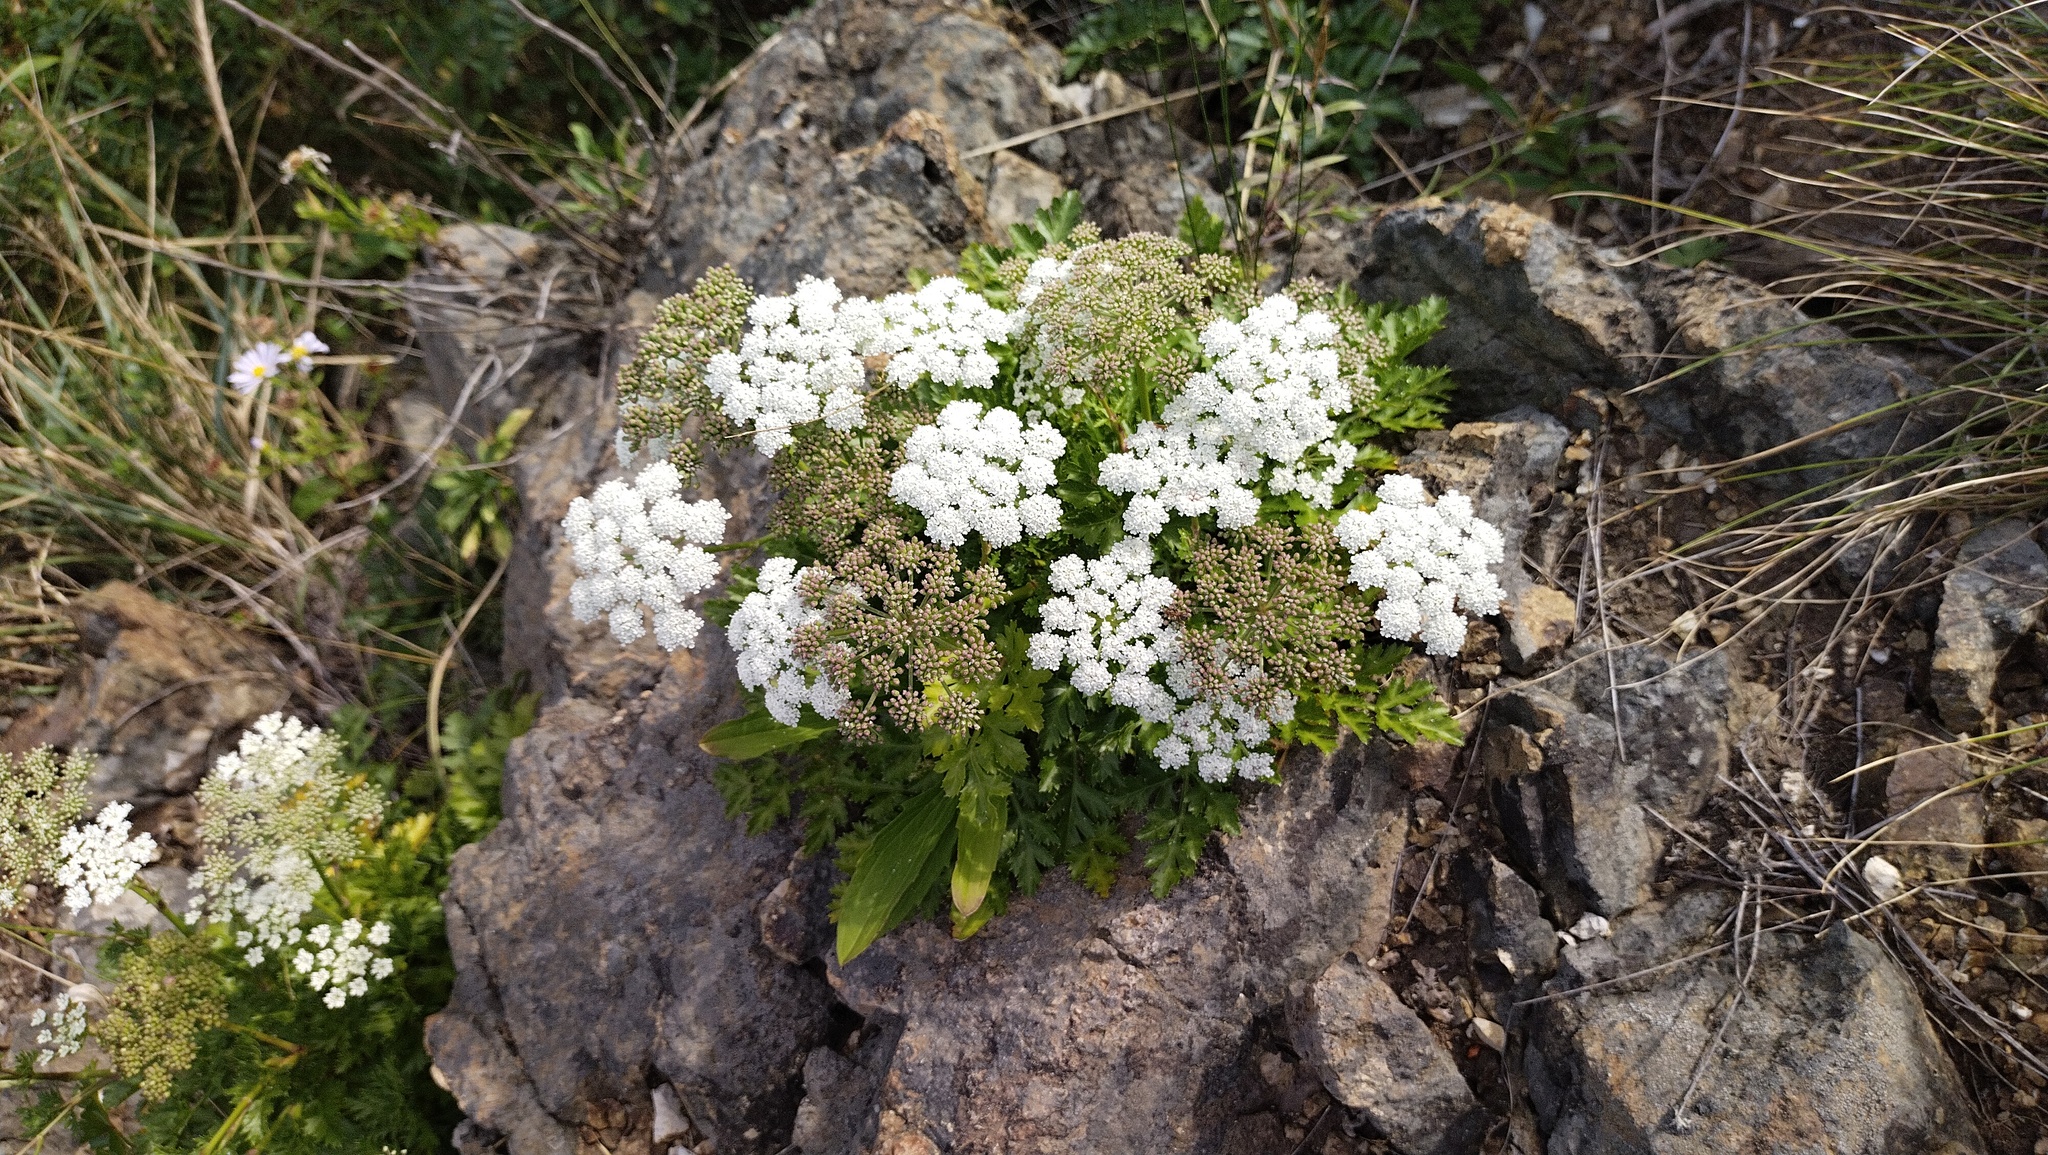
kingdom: Plantae
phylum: Tracheophyta
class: Magnoliopsida
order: Apiales
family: Apiaceae
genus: Kitagawia
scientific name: Kitagawia terebinthacea
